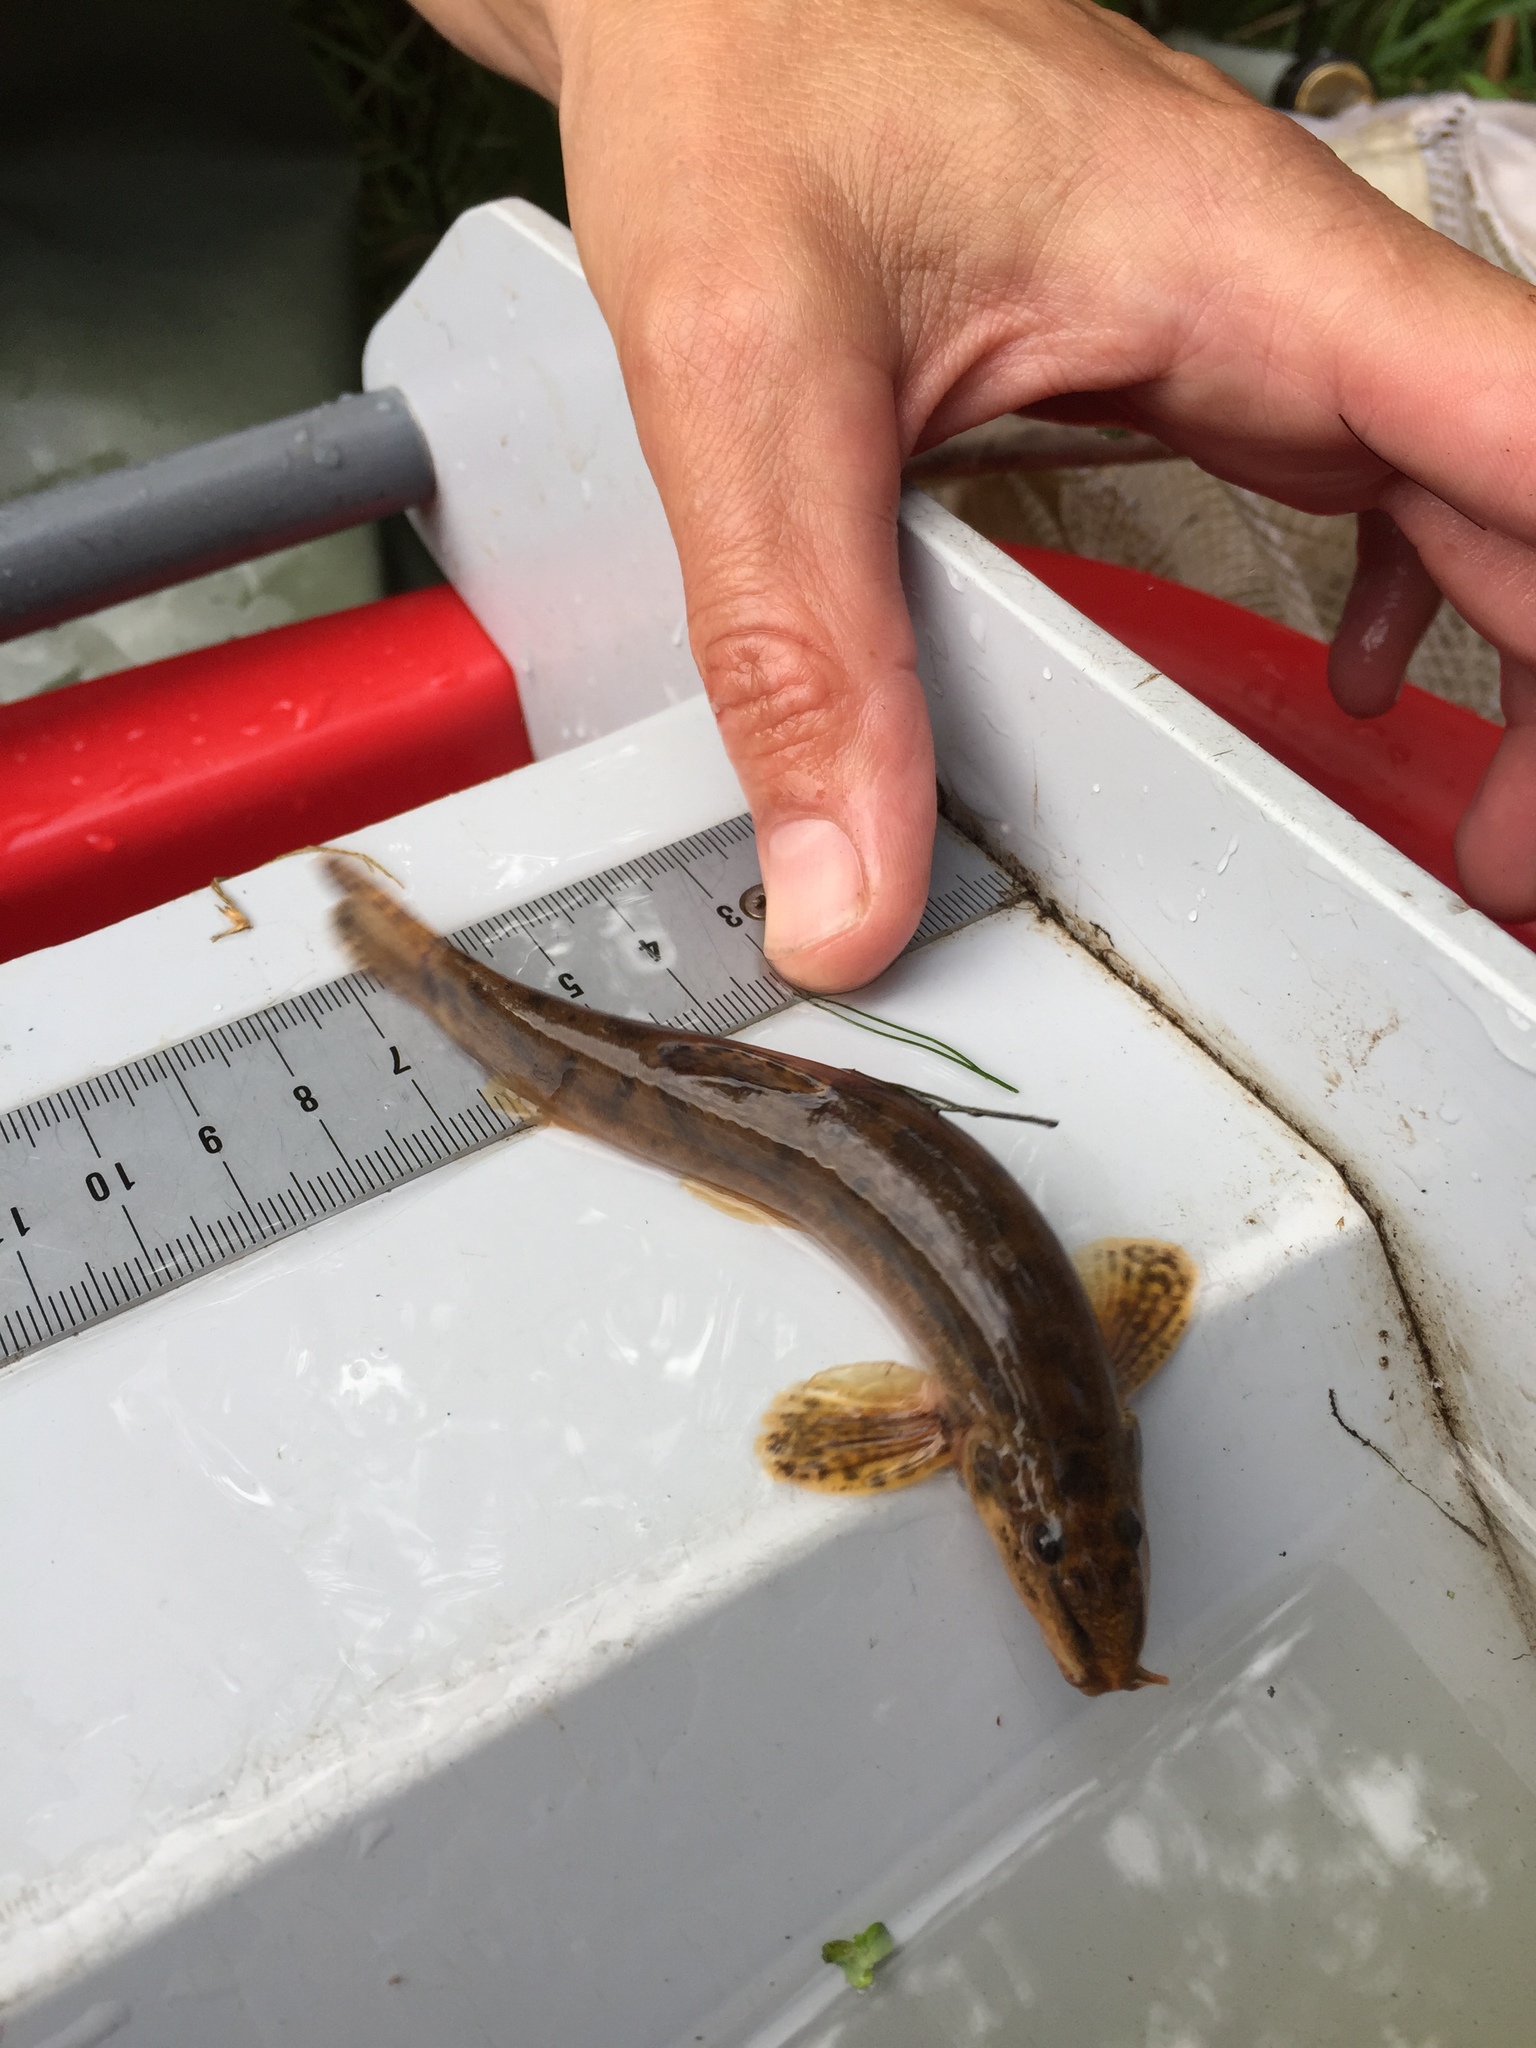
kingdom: Animalia
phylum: Chordata
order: Cypriniformes
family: Nemacheilidae
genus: Barbatula
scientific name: Barbatula barbatula
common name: Stone loach
